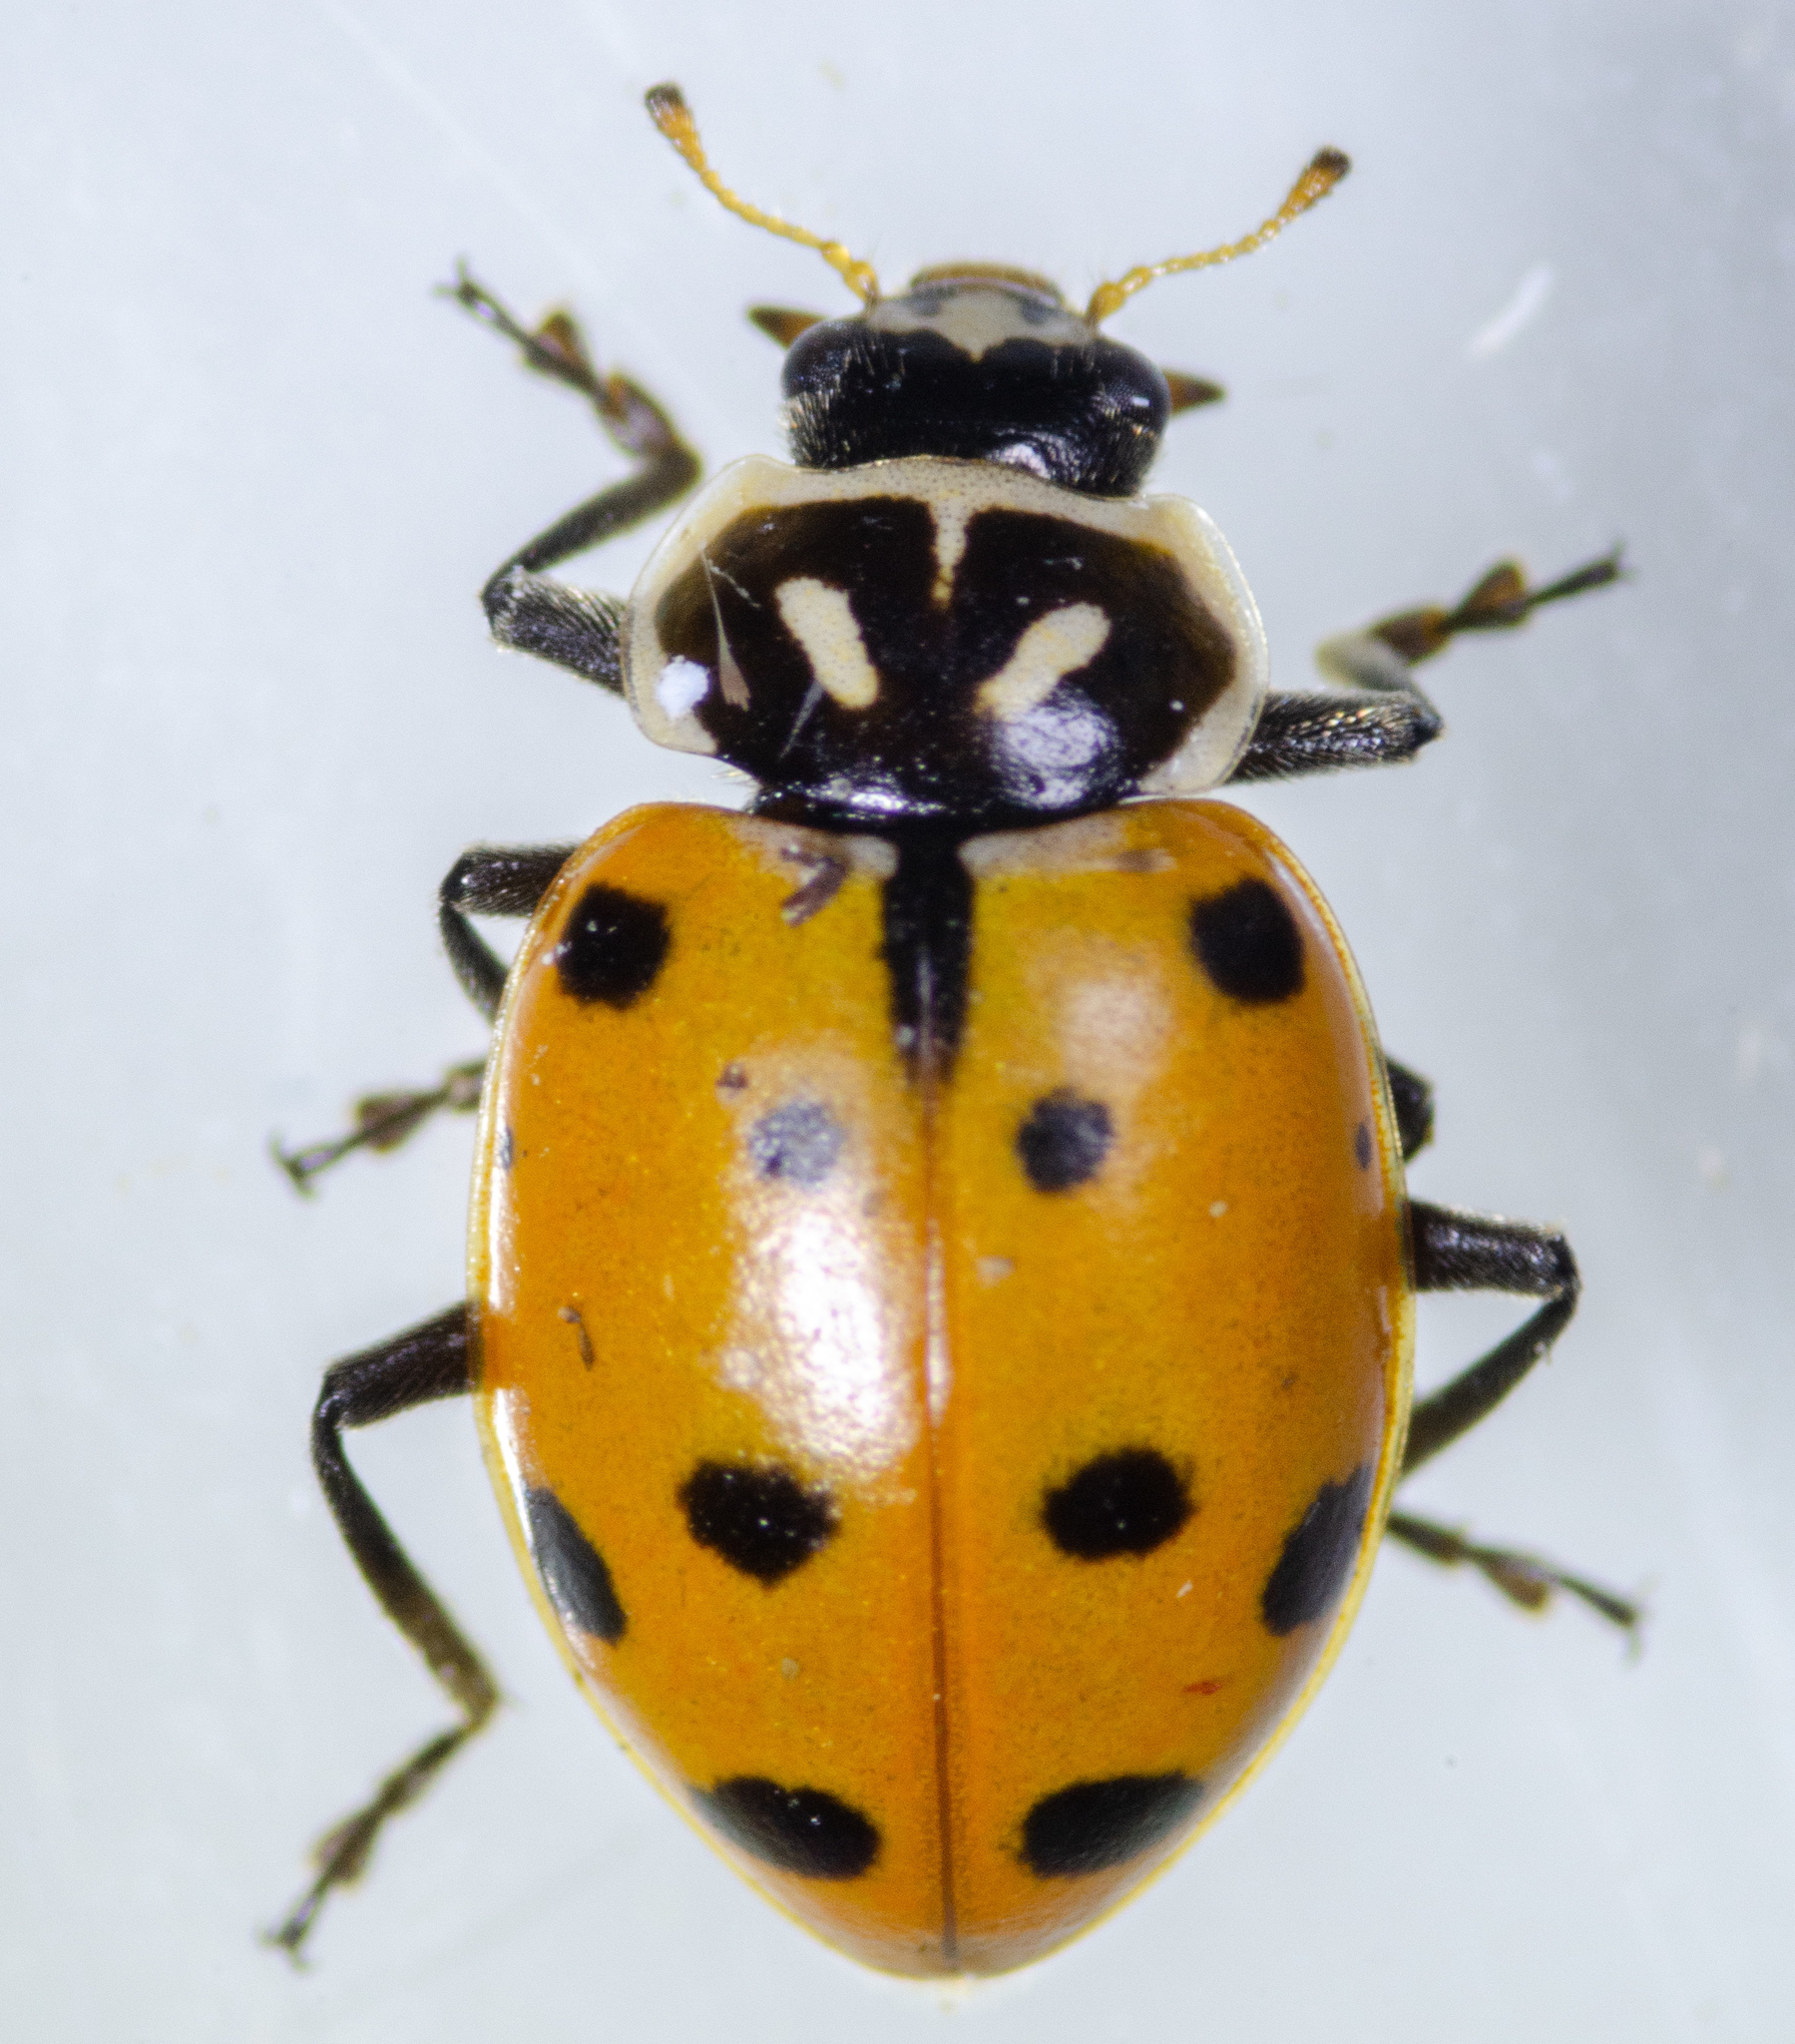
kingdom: Animalia
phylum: Arthropoda
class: Insecta
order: Coleoptera
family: Coccinellidae
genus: Hippodamia
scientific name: Hippodamia convergens
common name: Convergent lady beetle
